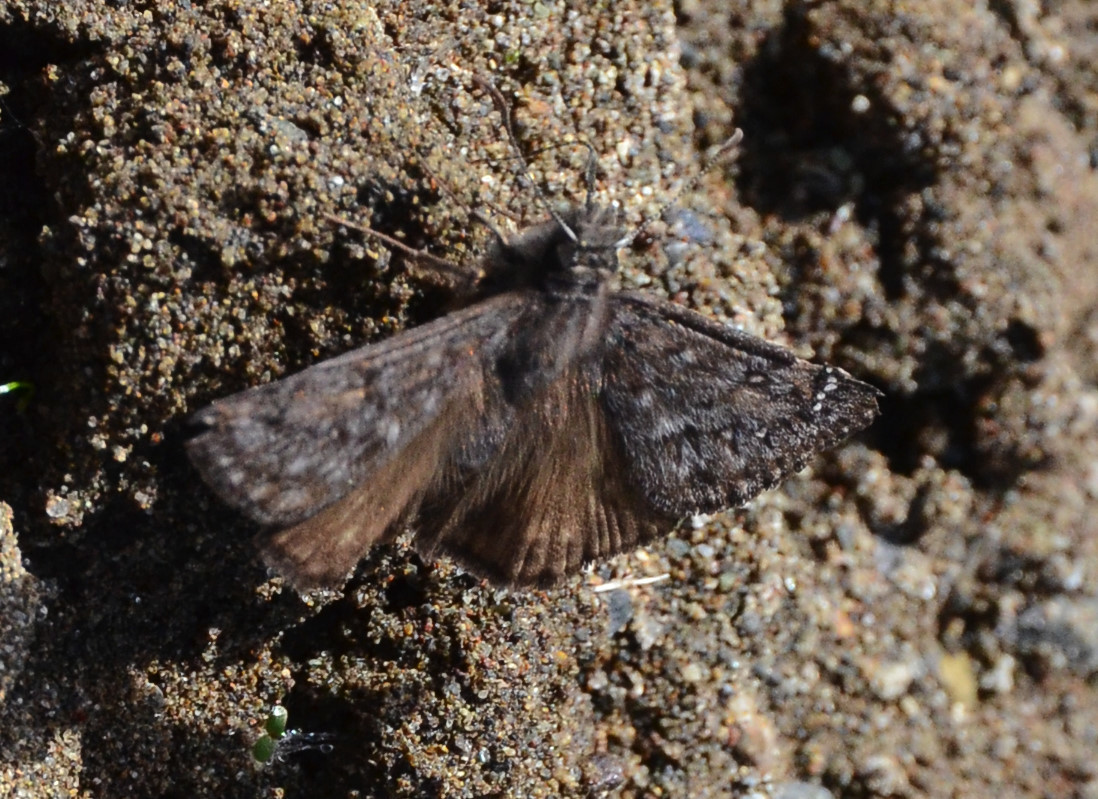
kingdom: Animalia
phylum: Arthropoda
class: Insecta
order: Lepidoptera
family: Hesperiidae
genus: Erynnis
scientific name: Erynnis persius
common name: Persius duskywing
